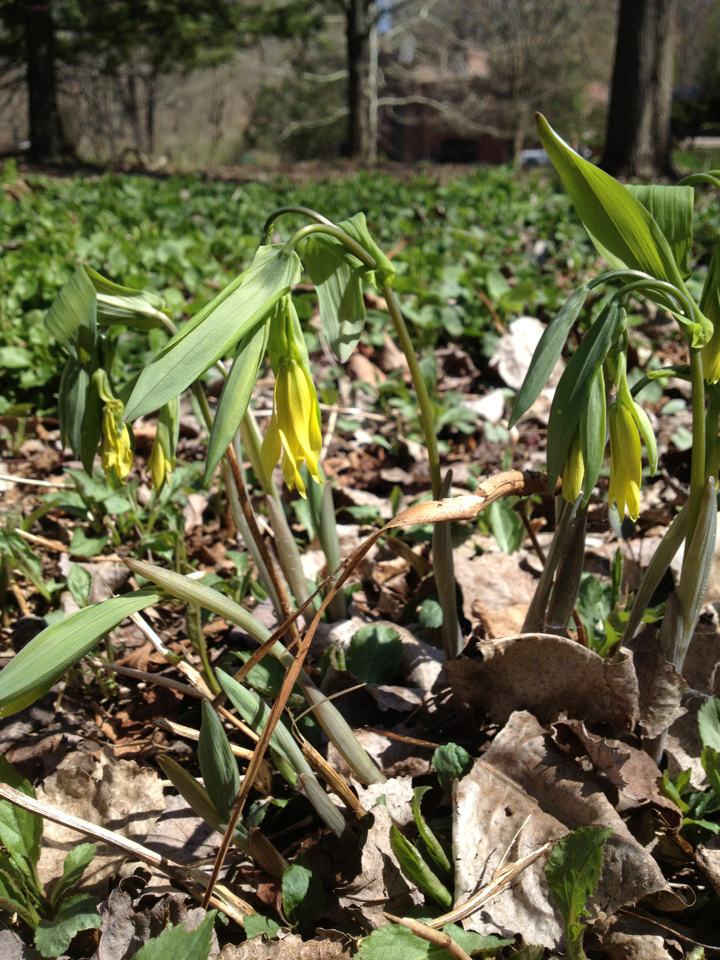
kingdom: Plantae
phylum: Tracheophyta
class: Liliopsida
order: Liliales
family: Colchicaceae
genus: Uvularia
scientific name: Uvularia grandiflora
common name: Bellwort
